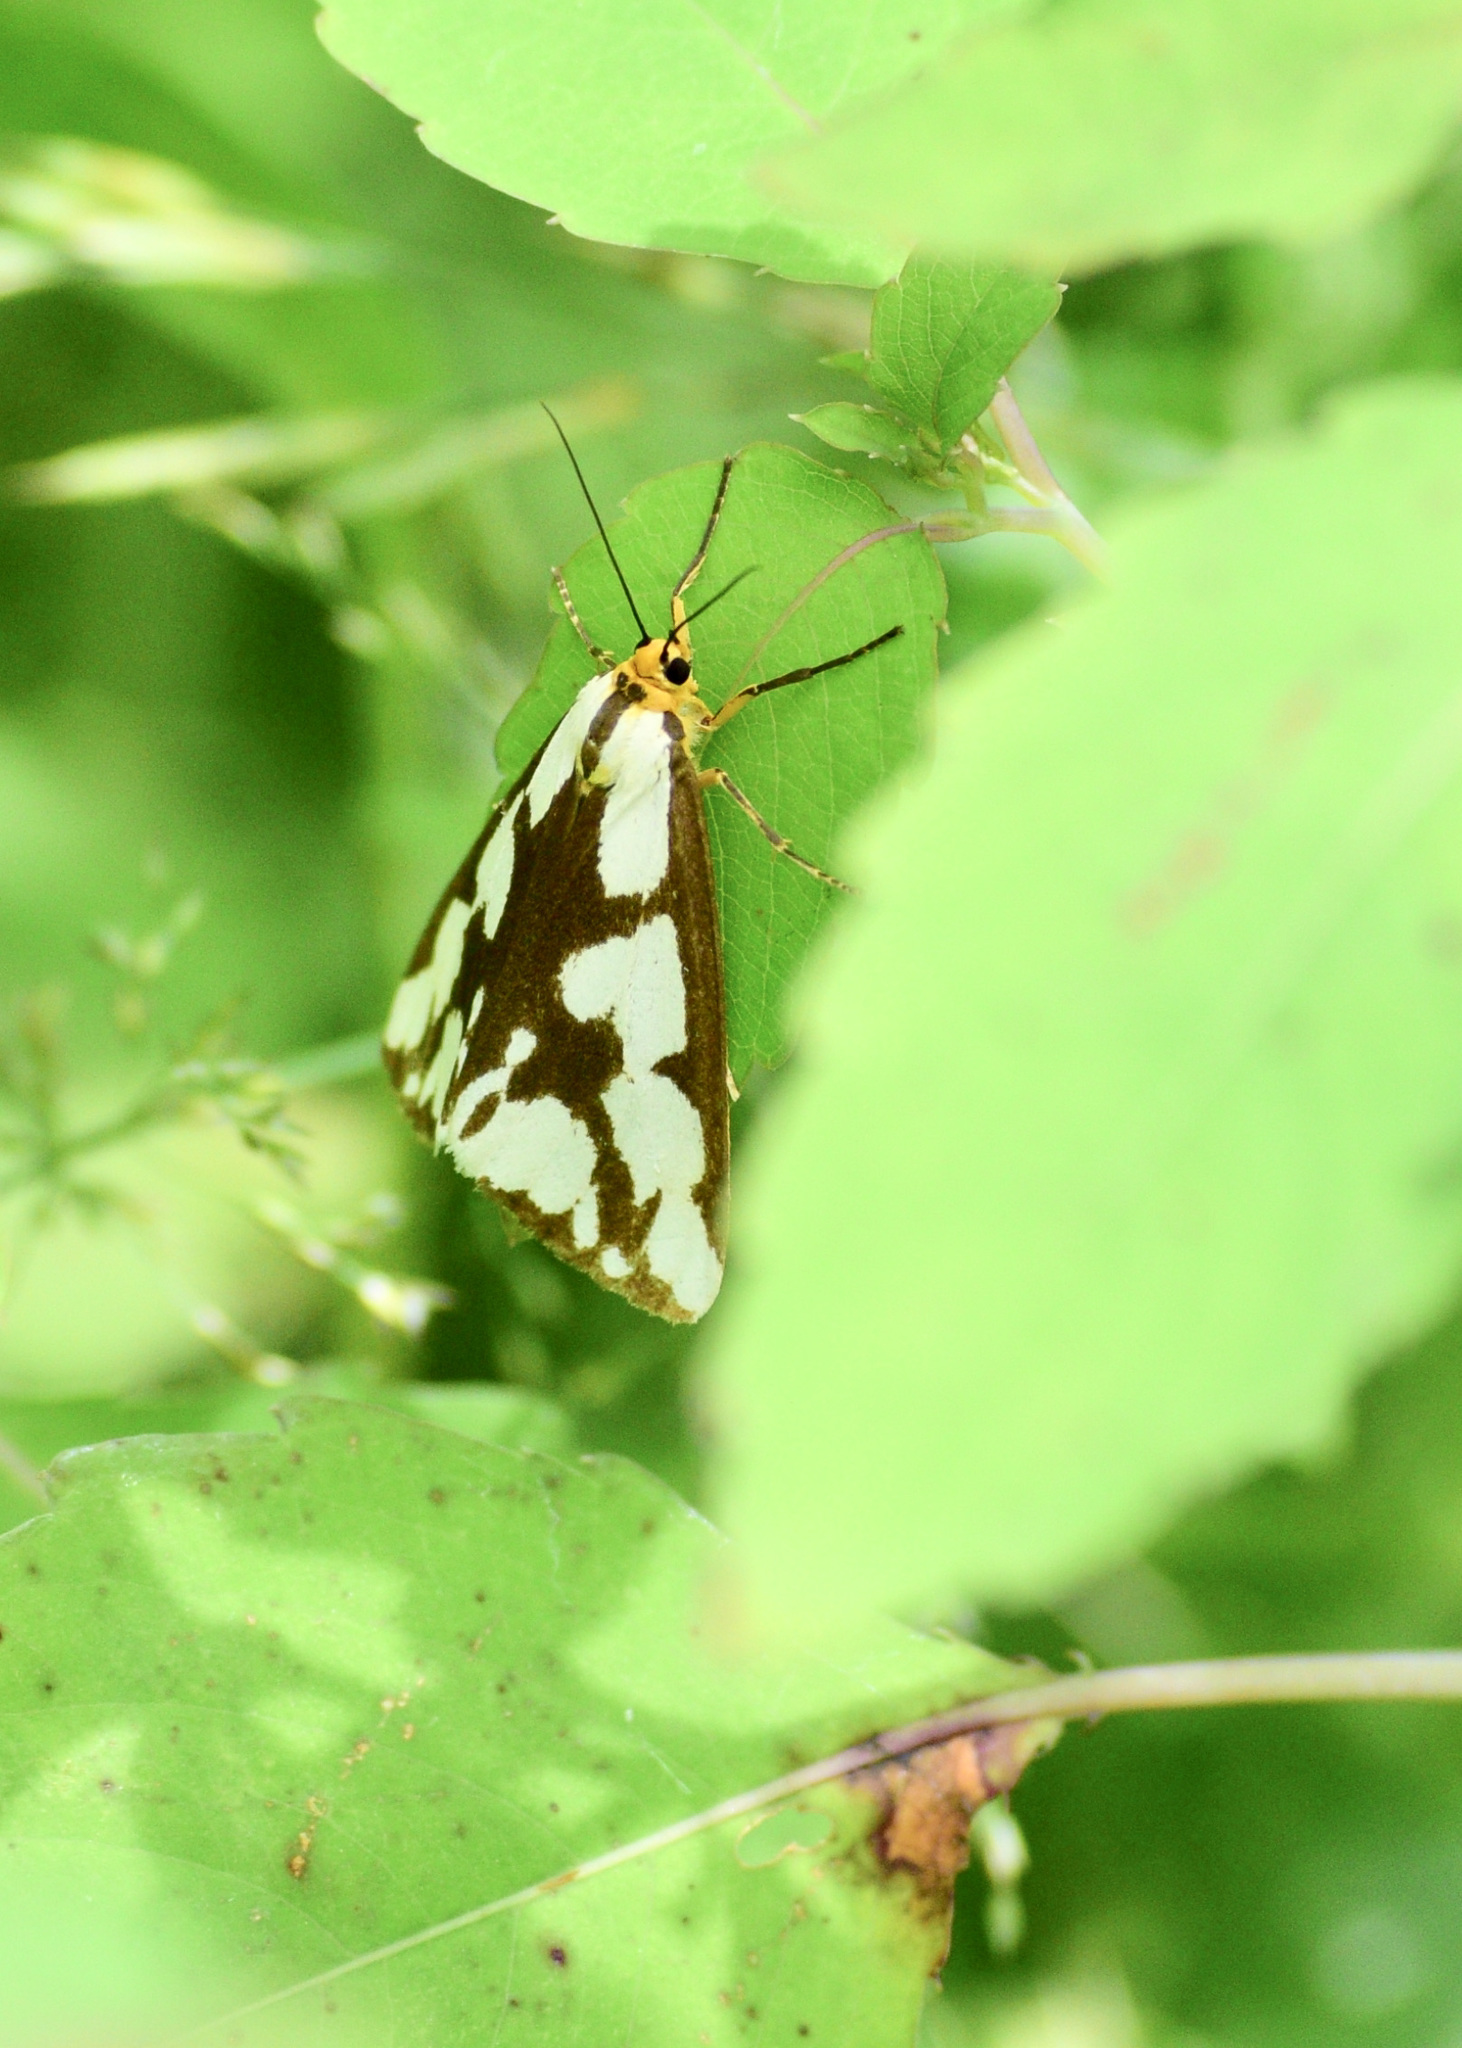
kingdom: Animalia
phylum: Arthropoda
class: Insecta
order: Lepidoptera
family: Erebidae
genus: Haploa
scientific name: Haploa confusa
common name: Confused haploa moth
